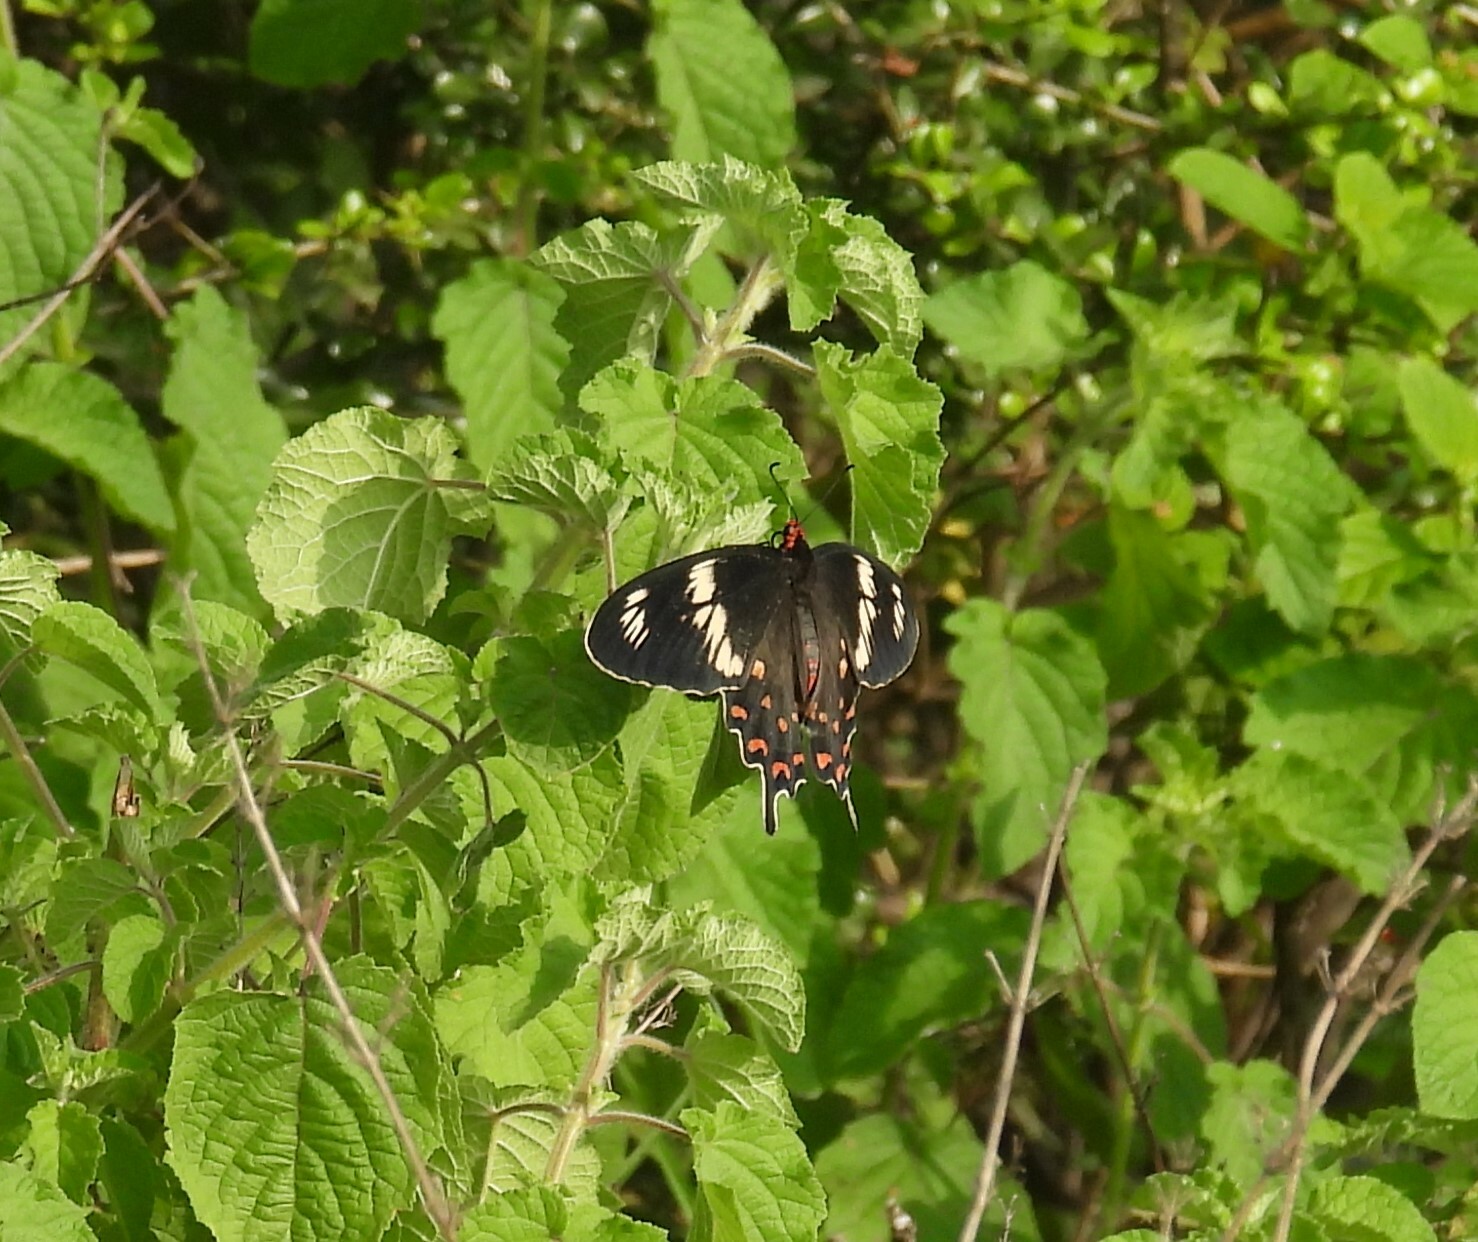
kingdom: Animalia
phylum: Arthropoda
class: Insecta
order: Lepidoptera
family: Papilionidae
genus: Pachliopta
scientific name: Pachliopta hector
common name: Crimson rose
